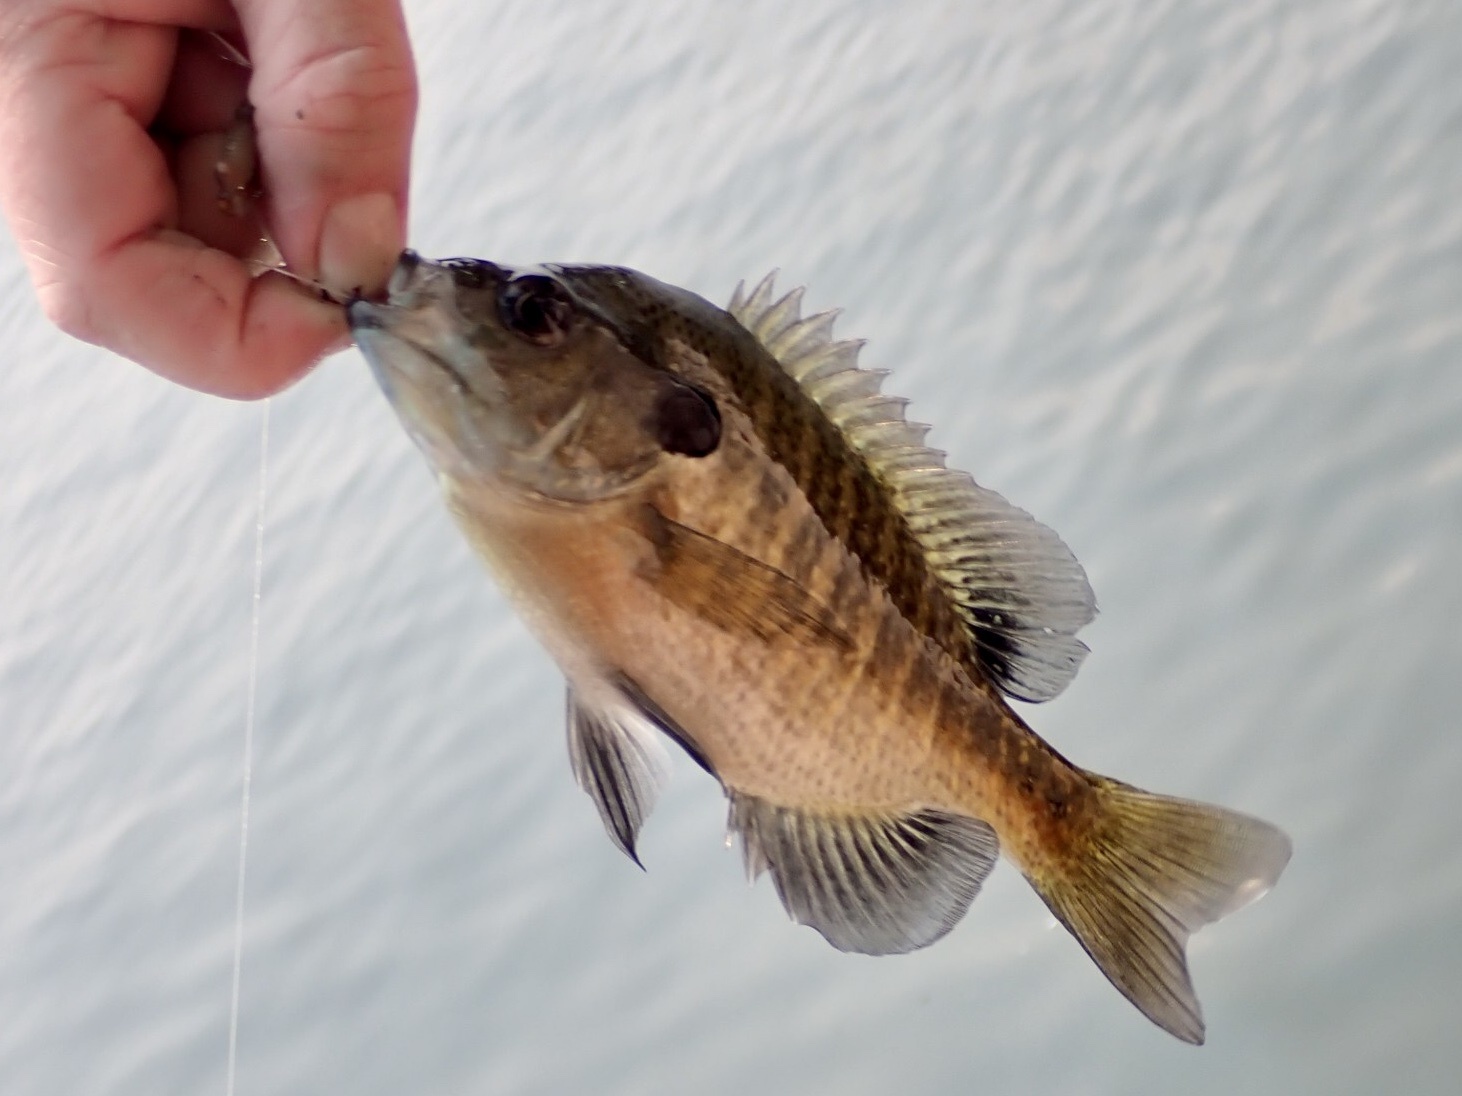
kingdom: Animalia
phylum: Chordata
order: Perciformes
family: Centrarchidae
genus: Lepomis
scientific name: Lepomis macrochirus
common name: Bluegill
